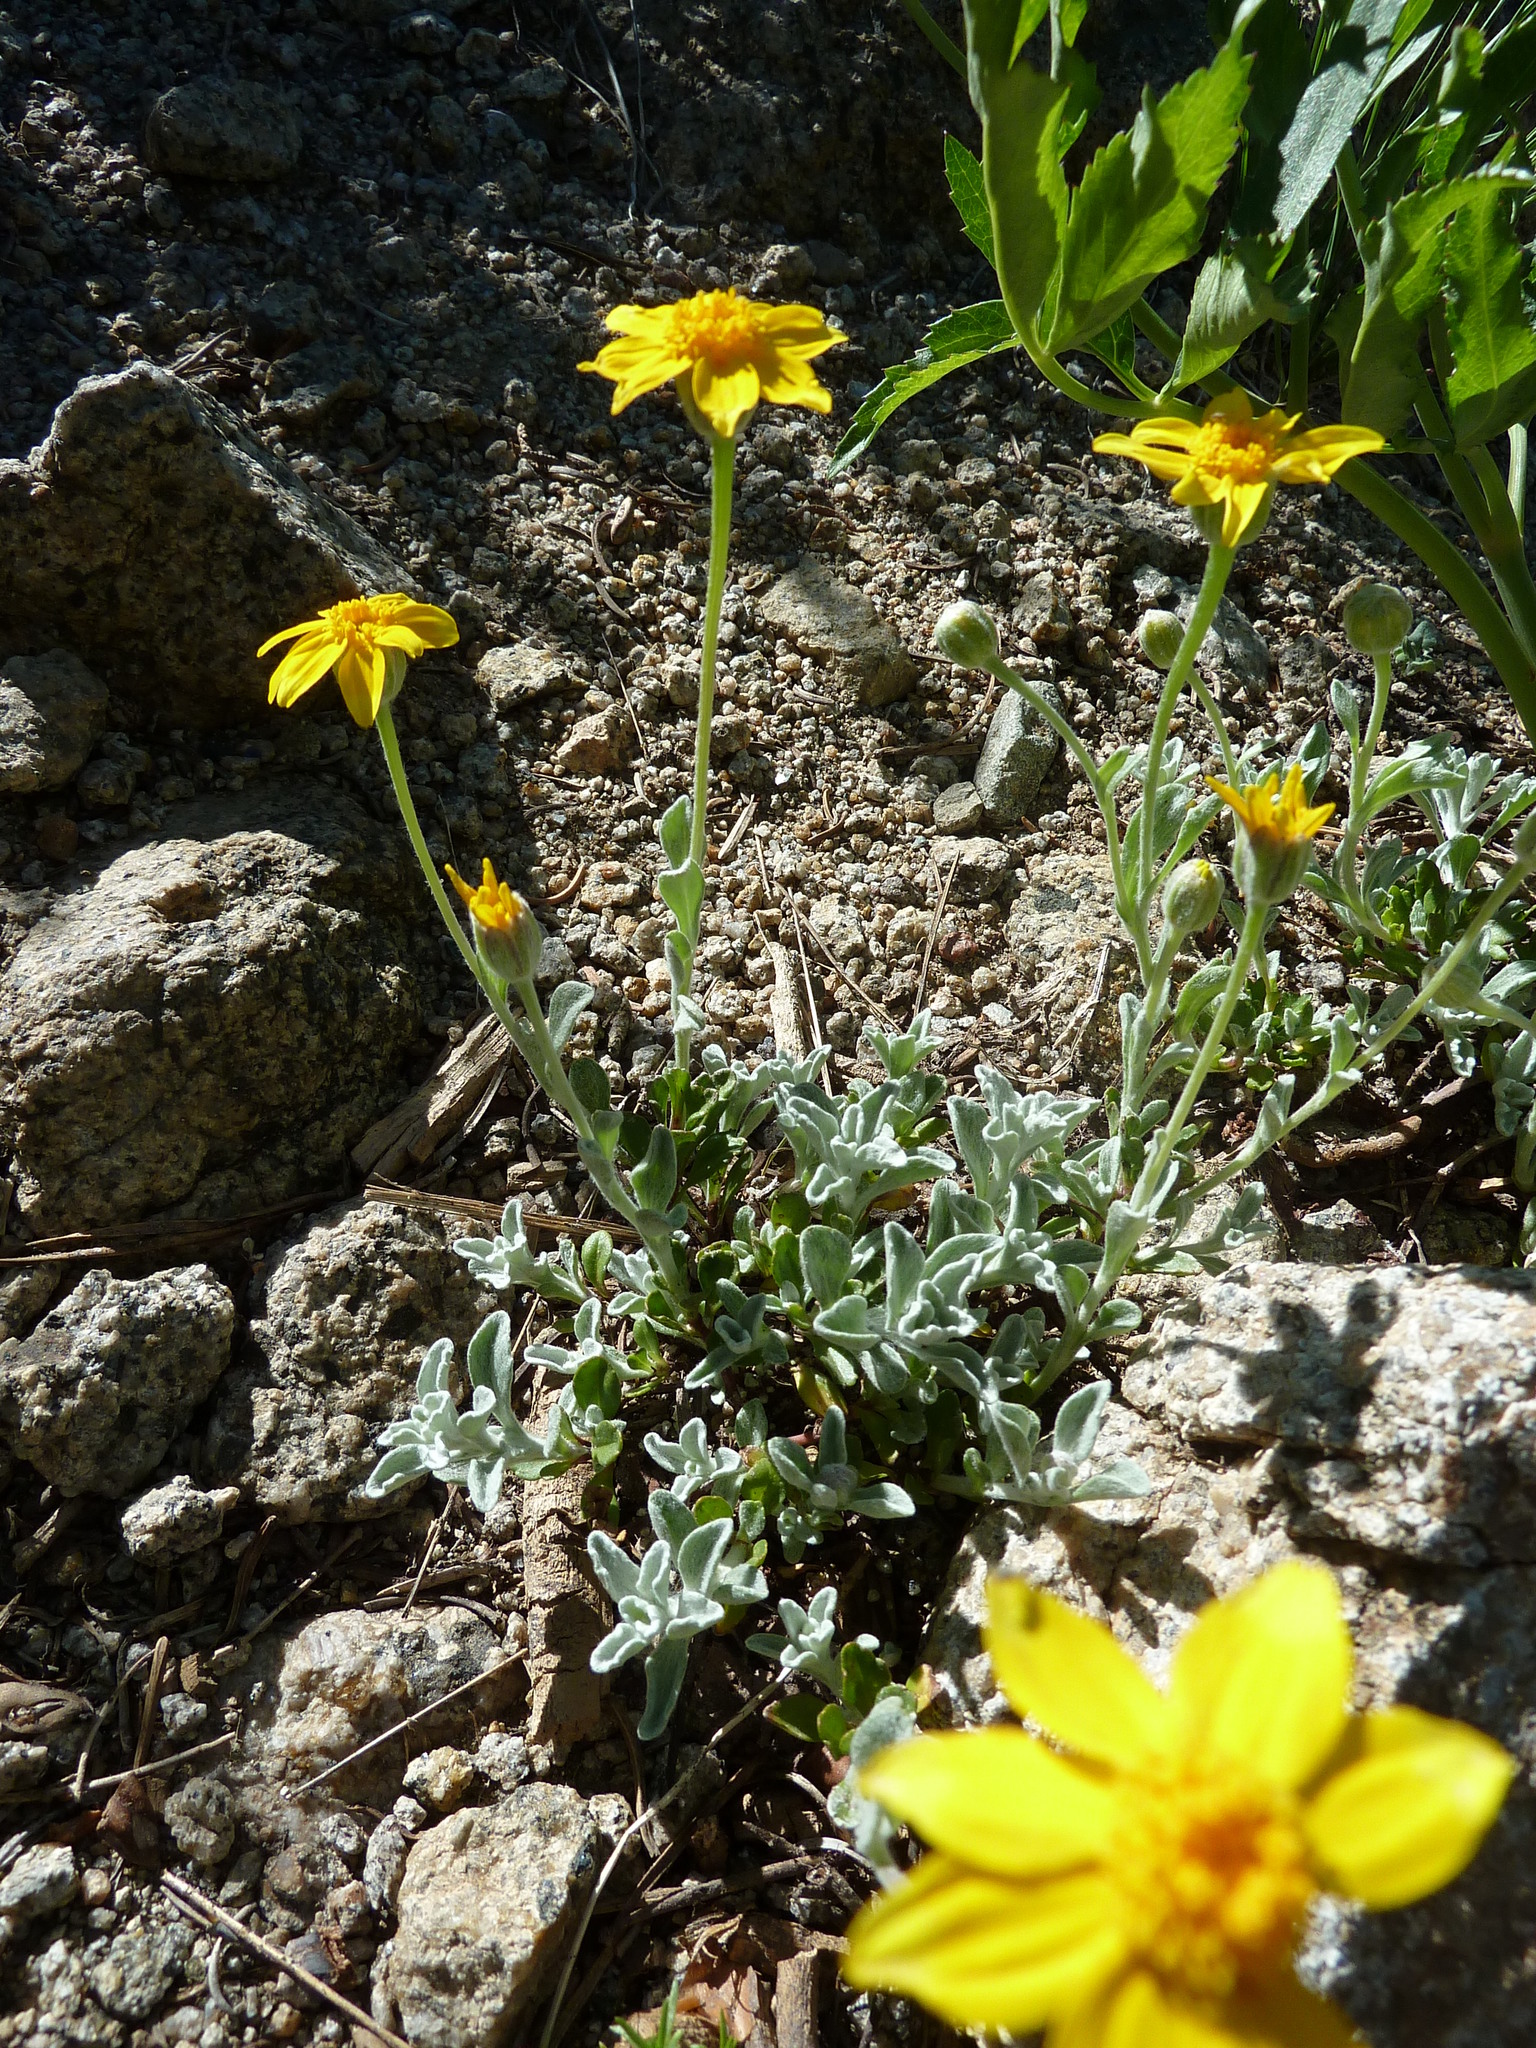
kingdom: Plantae
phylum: Tracheophyta
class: Magnoliopsida
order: Asterales
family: Asteraceae
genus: Eriophyllum
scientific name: Eriophyllum lanatum
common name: Common woolly-sunflower
